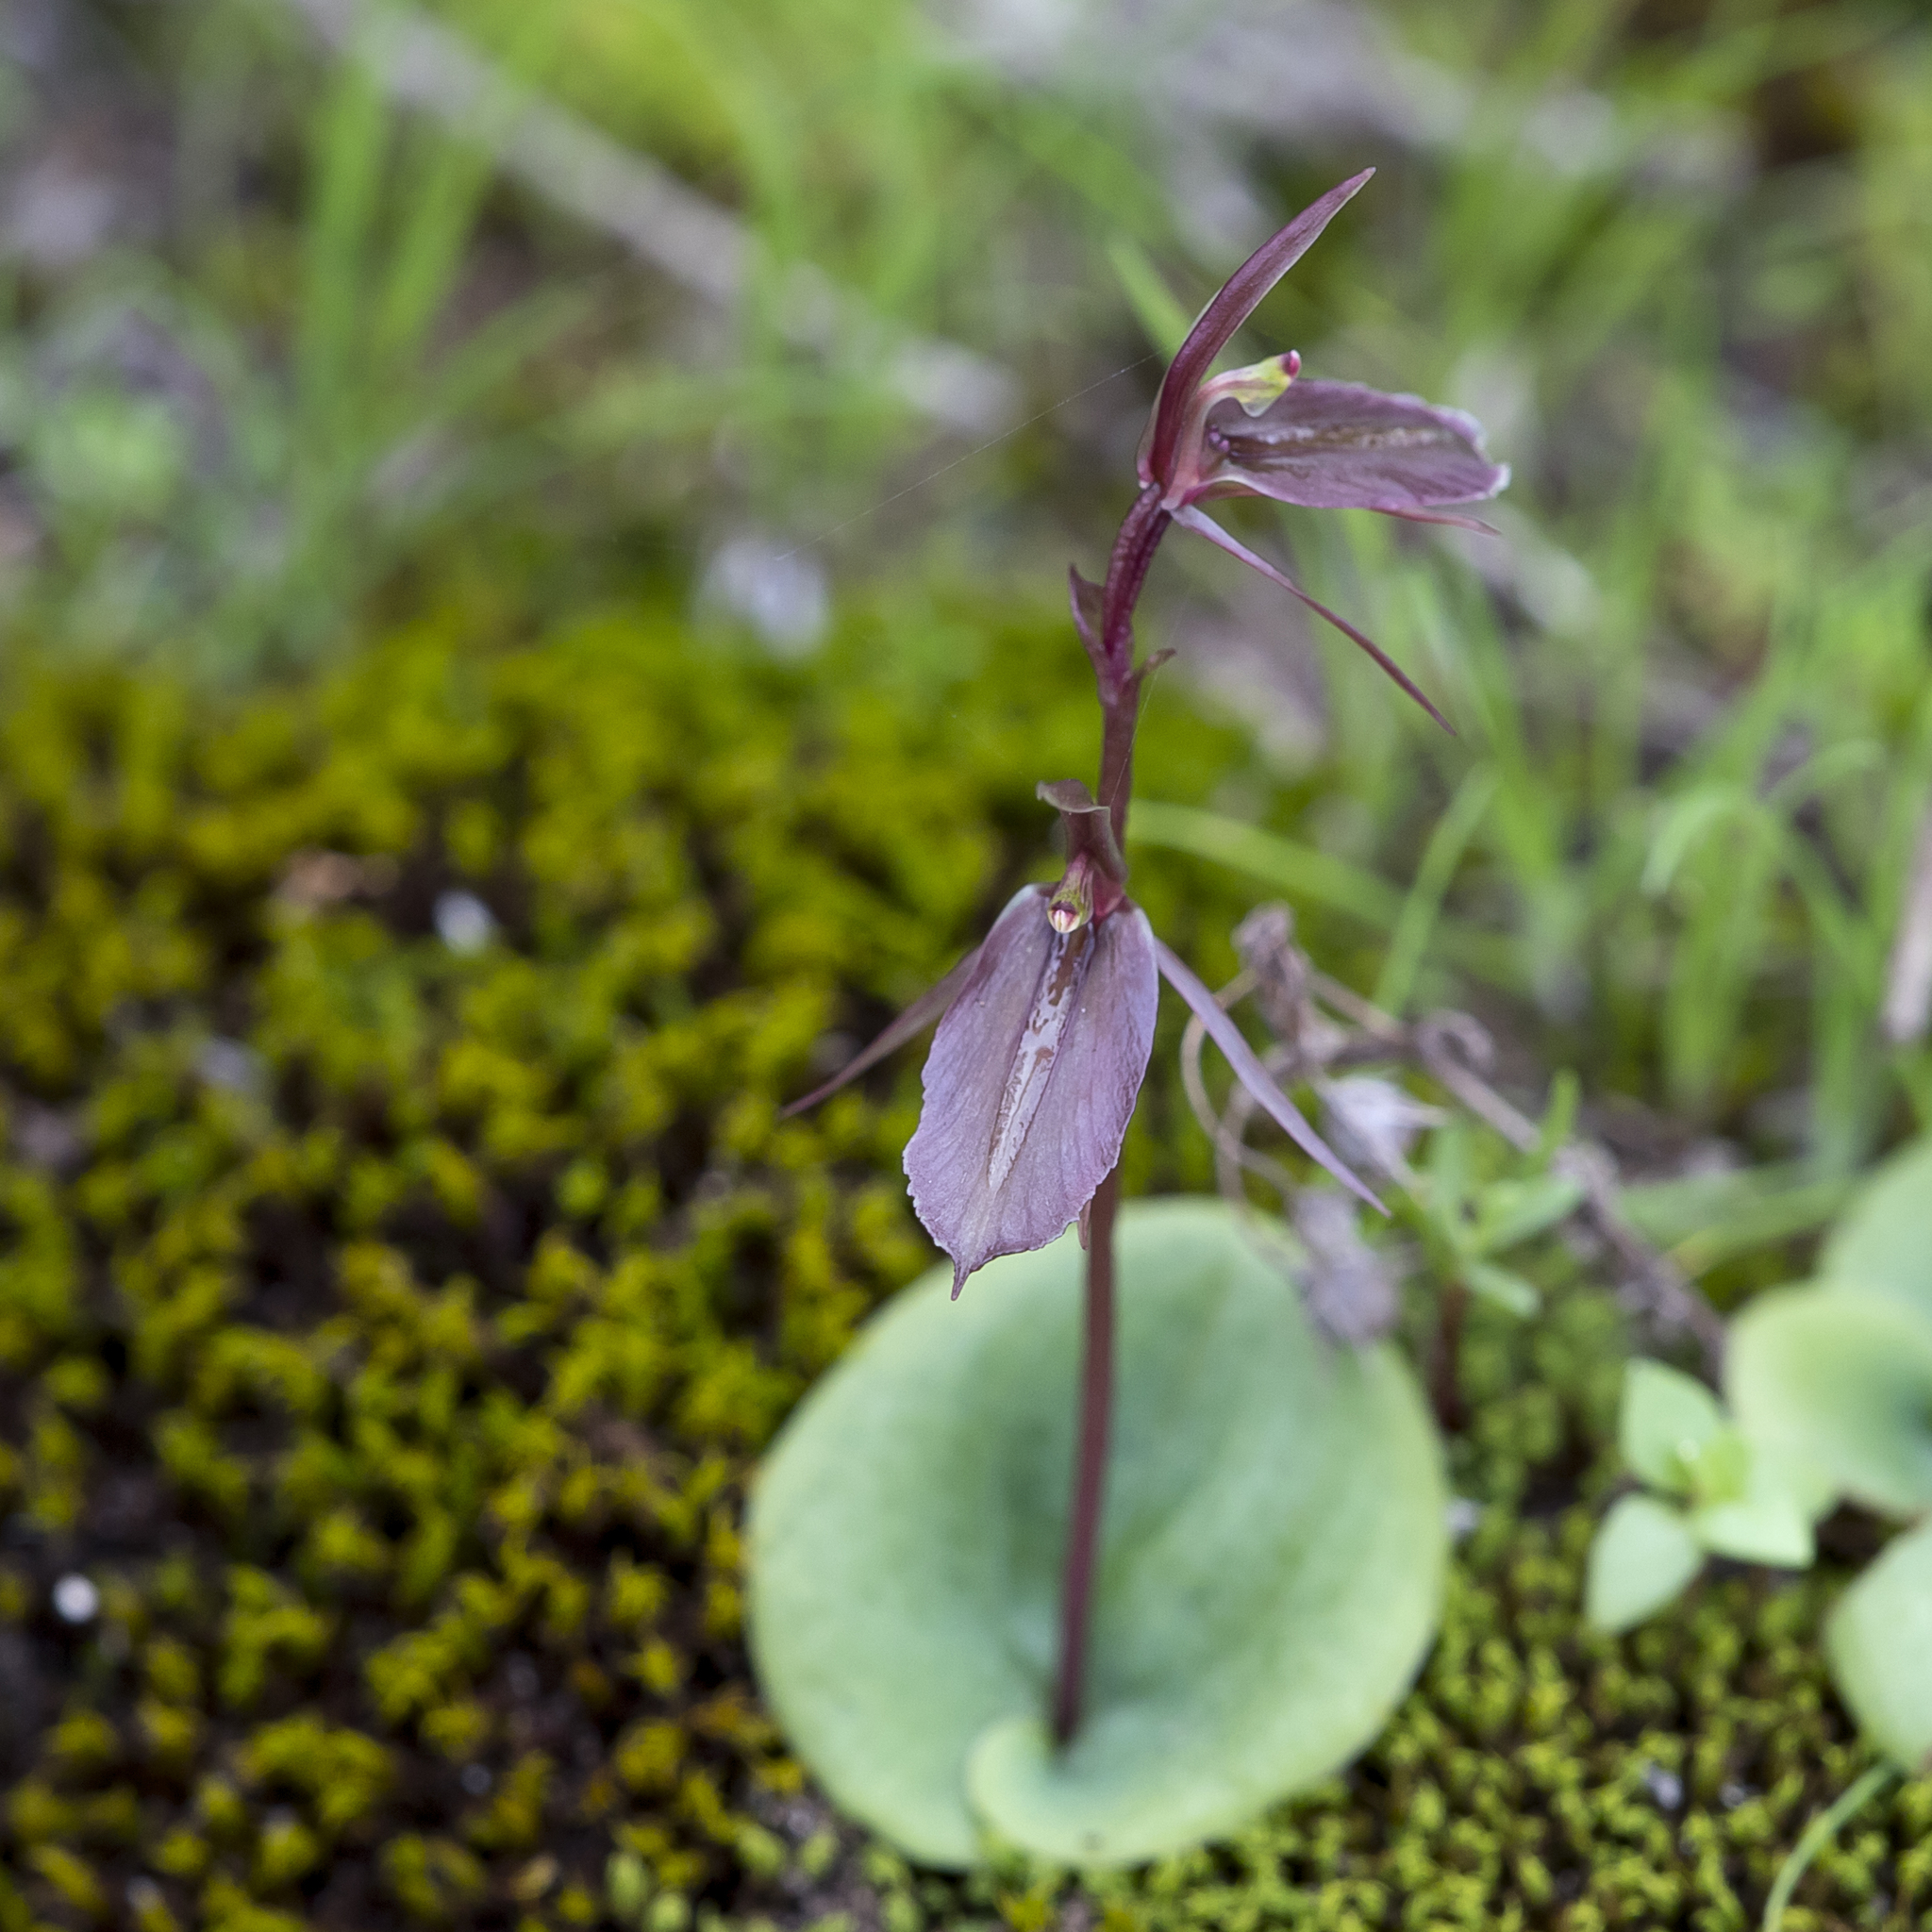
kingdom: Plantae
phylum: Tracheophyta
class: Liliopsida
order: Asparagales
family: Orchidaceae
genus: Cyrtostylis
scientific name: Cyrtostylis robusta
